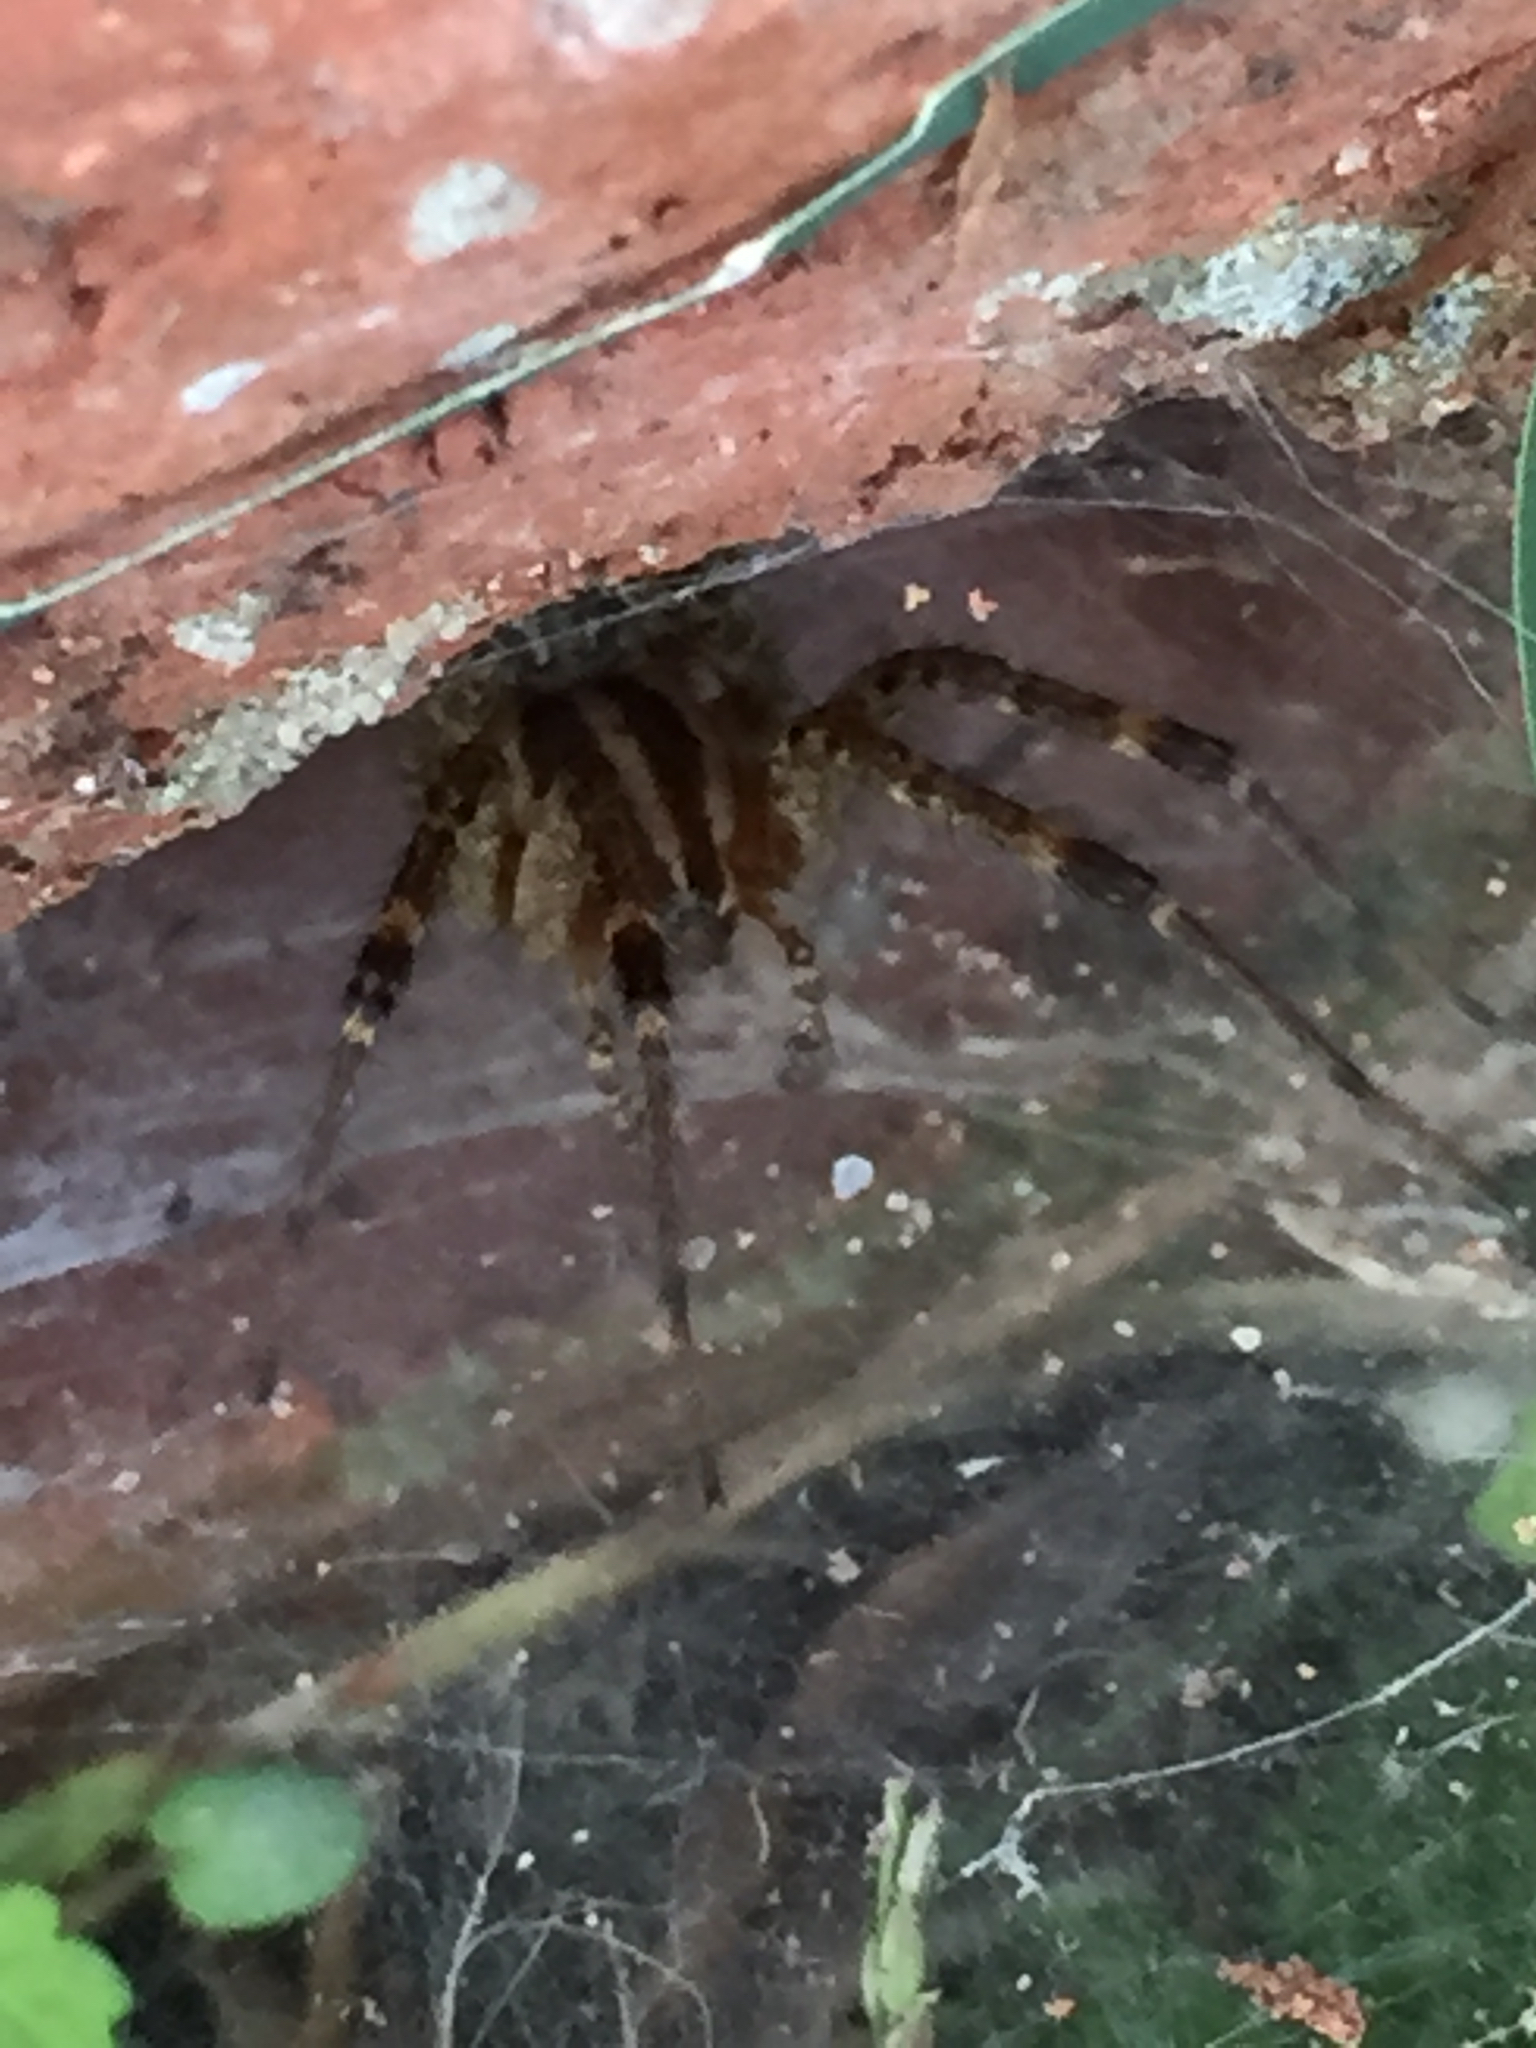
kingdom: Animalia
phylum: Arthropoda
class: Arachnida
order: Araneae
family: Agelenidae
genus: Agelenopsis
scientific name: Agelenopsis
